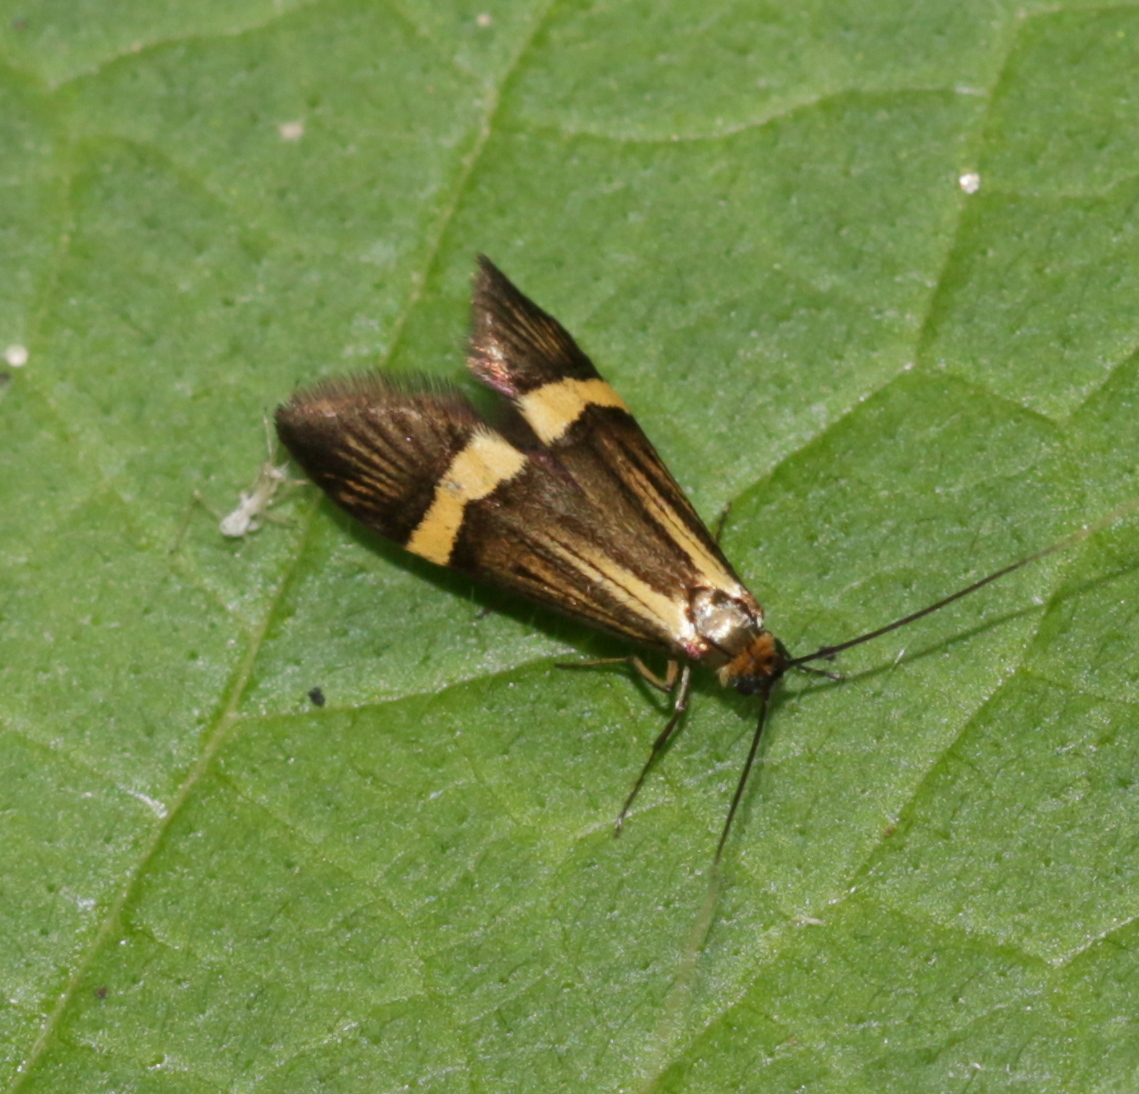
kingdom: Animalia
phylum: Arthropoda
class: Insecta
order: Lepidoptera
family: Adelidae
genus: Nemophora
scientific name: Nemophora degeerella
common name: Yellow-barred long-horn
